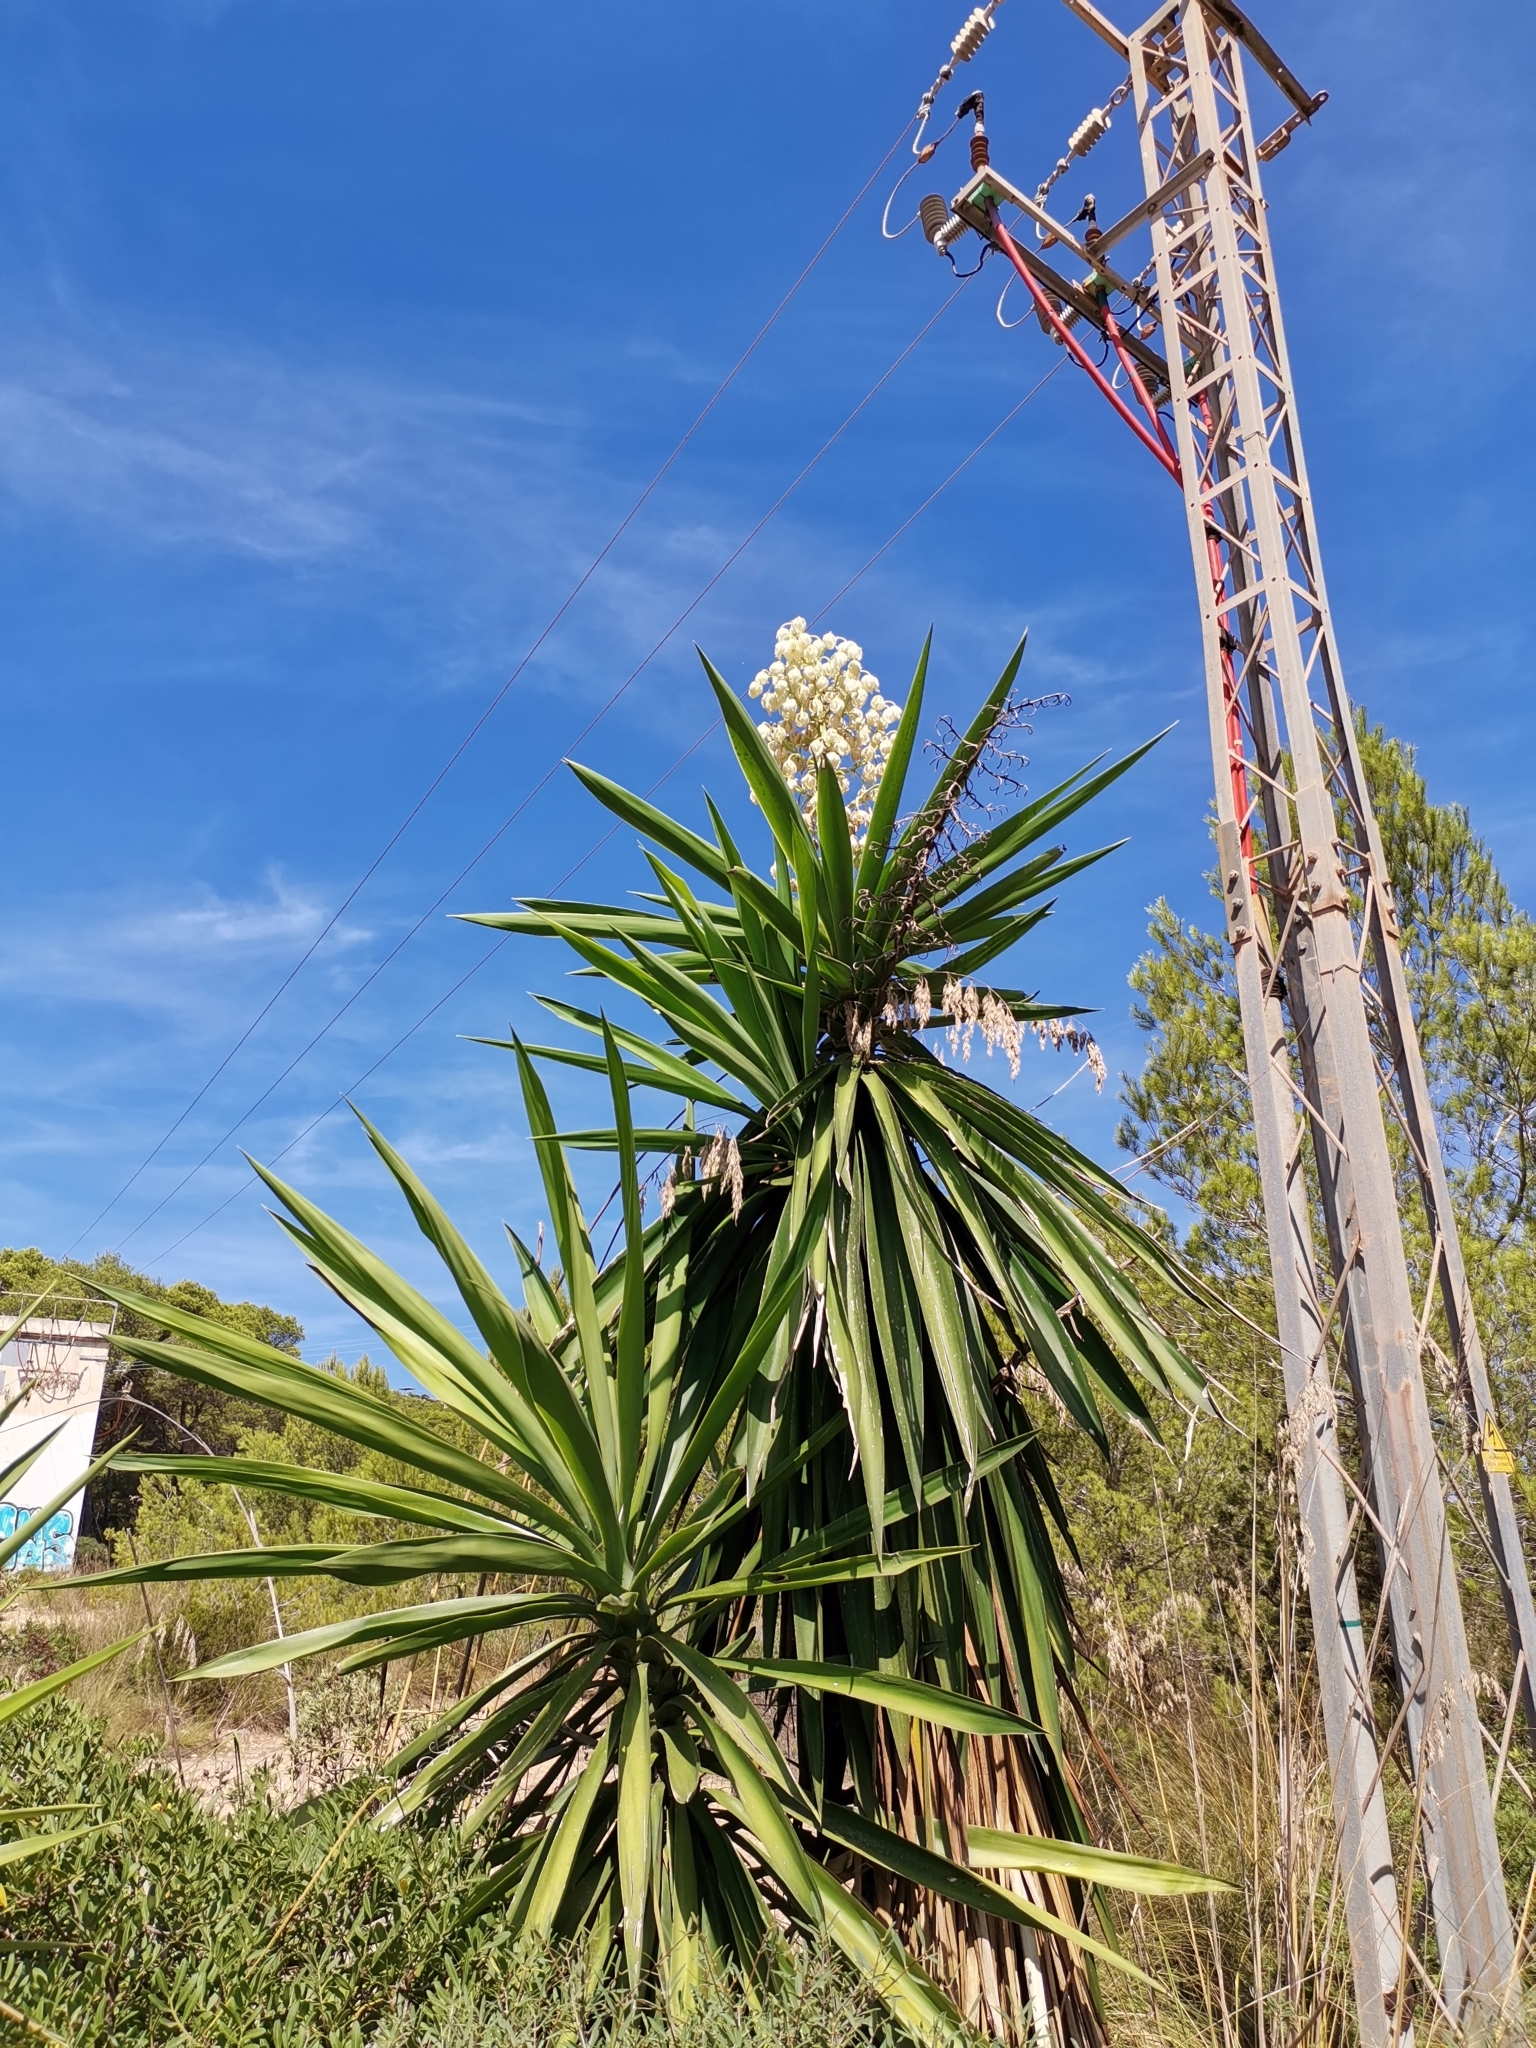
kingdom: Plantae
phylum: Tracheophyta
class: Liliopsida
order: Asparagales
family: Asparagaceae
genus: Yucca
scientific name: Yucca gloriosa
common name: Spanish-dagger
